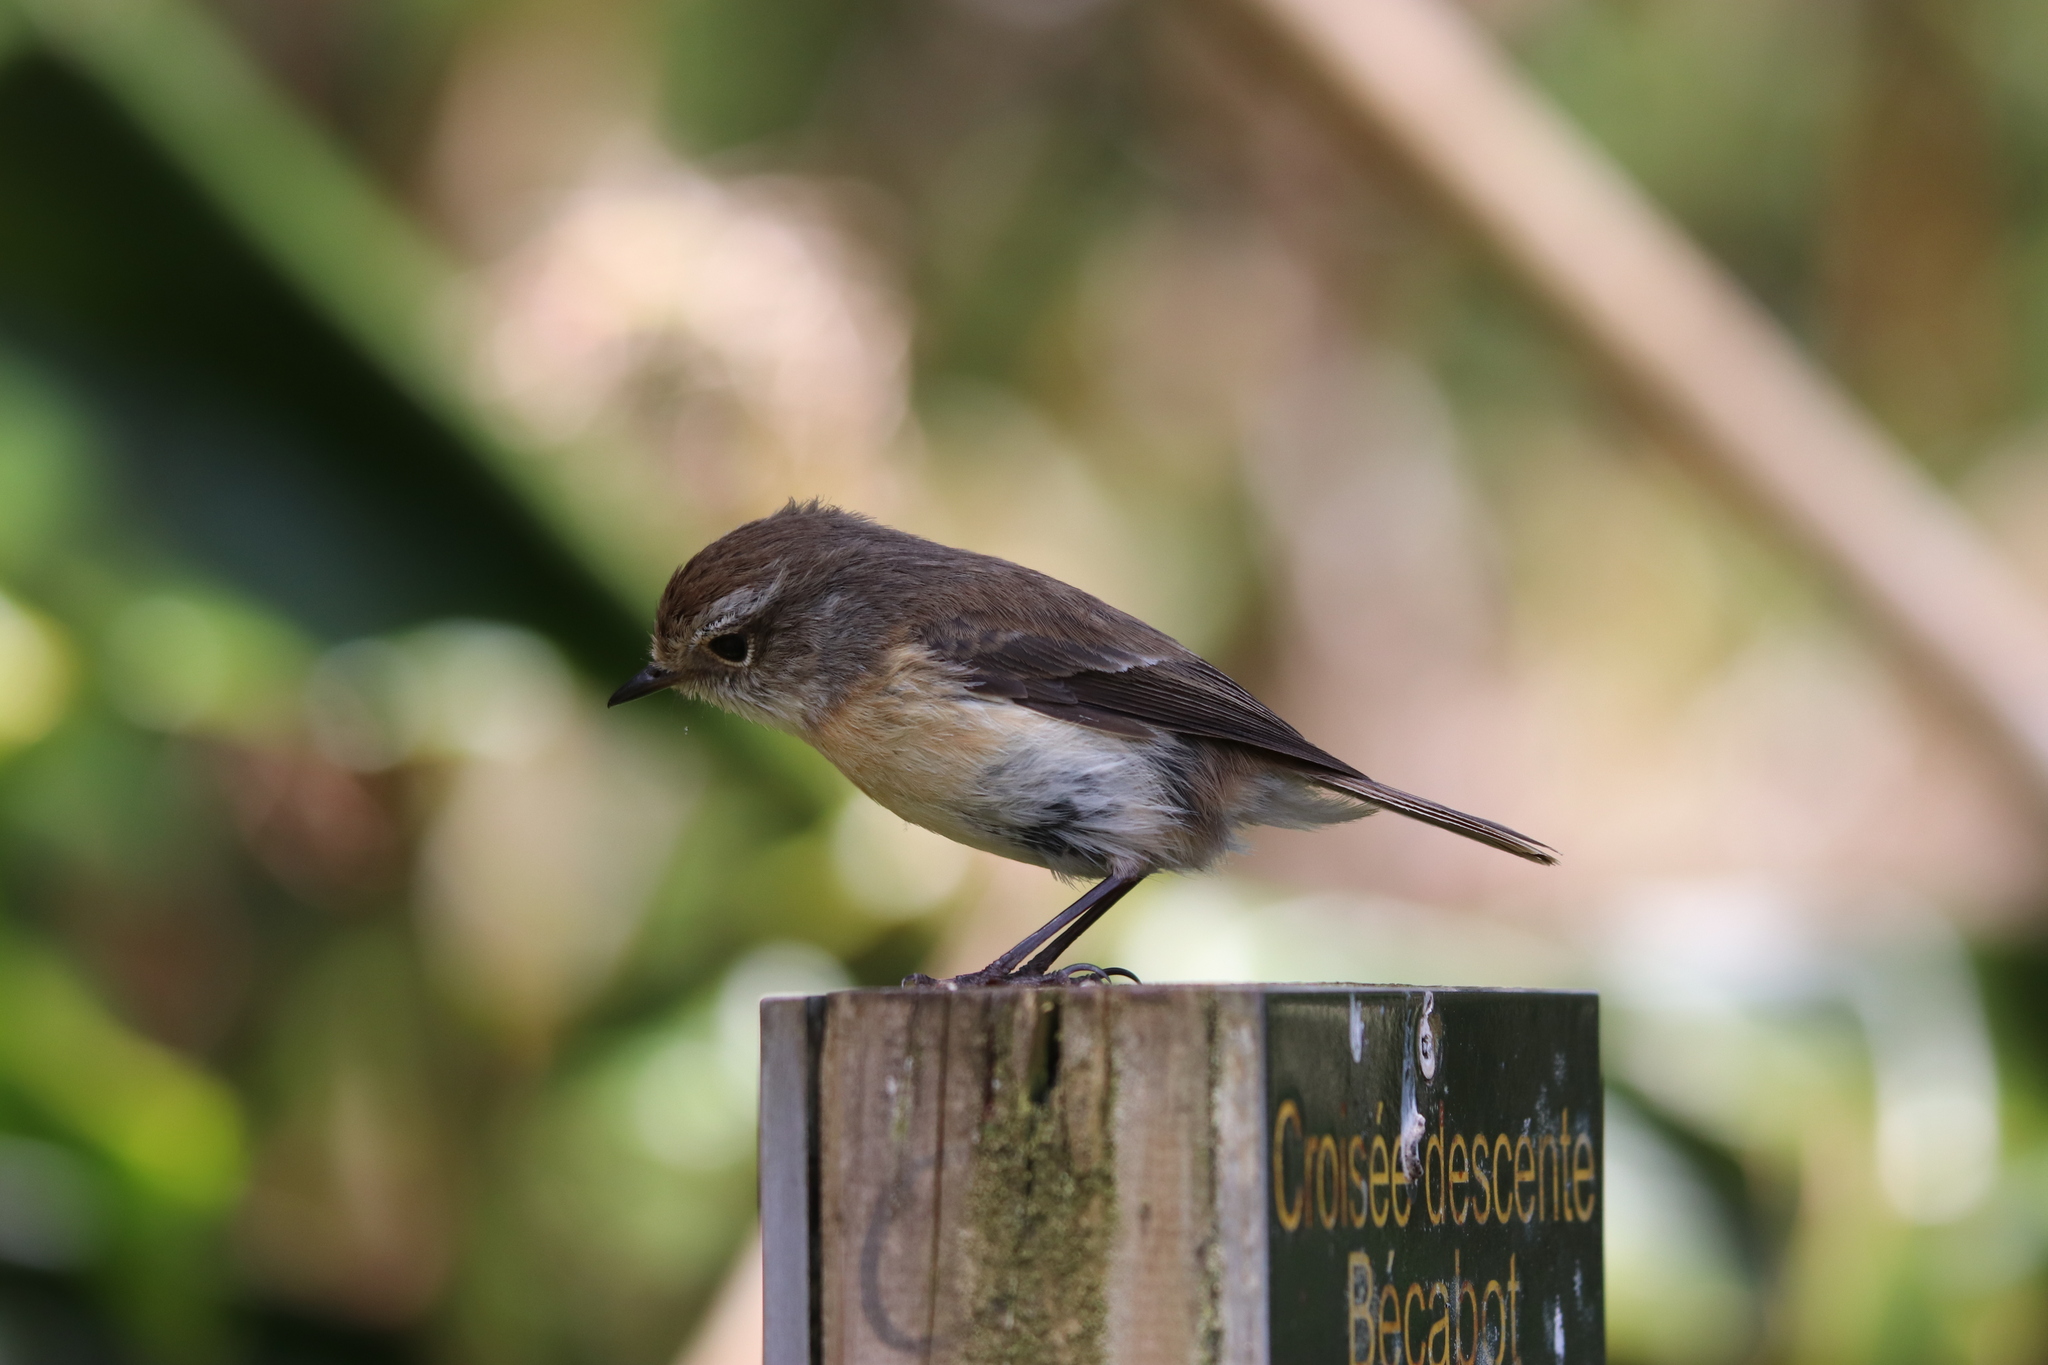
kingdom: Animalia
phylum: Chordata
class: Aves
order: Passeriformes
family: Muscicapidae
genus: Saxicola
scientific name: Saxicola tectes
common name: Reunion stonechat
